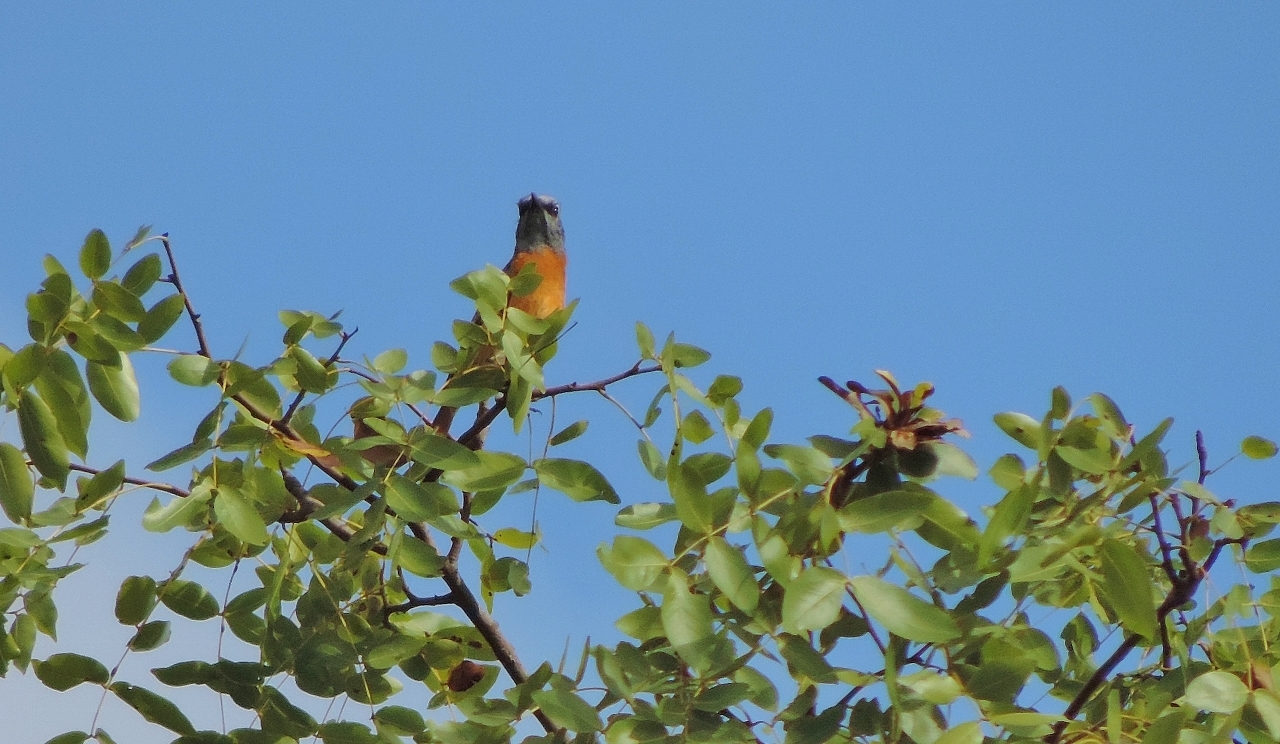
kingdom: Animalia
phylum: Chordata
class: Aves
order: Passeriformes
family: Muscicapidae
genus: Monticola
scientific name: Monticola angolensis
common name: Miombo rock thrush
